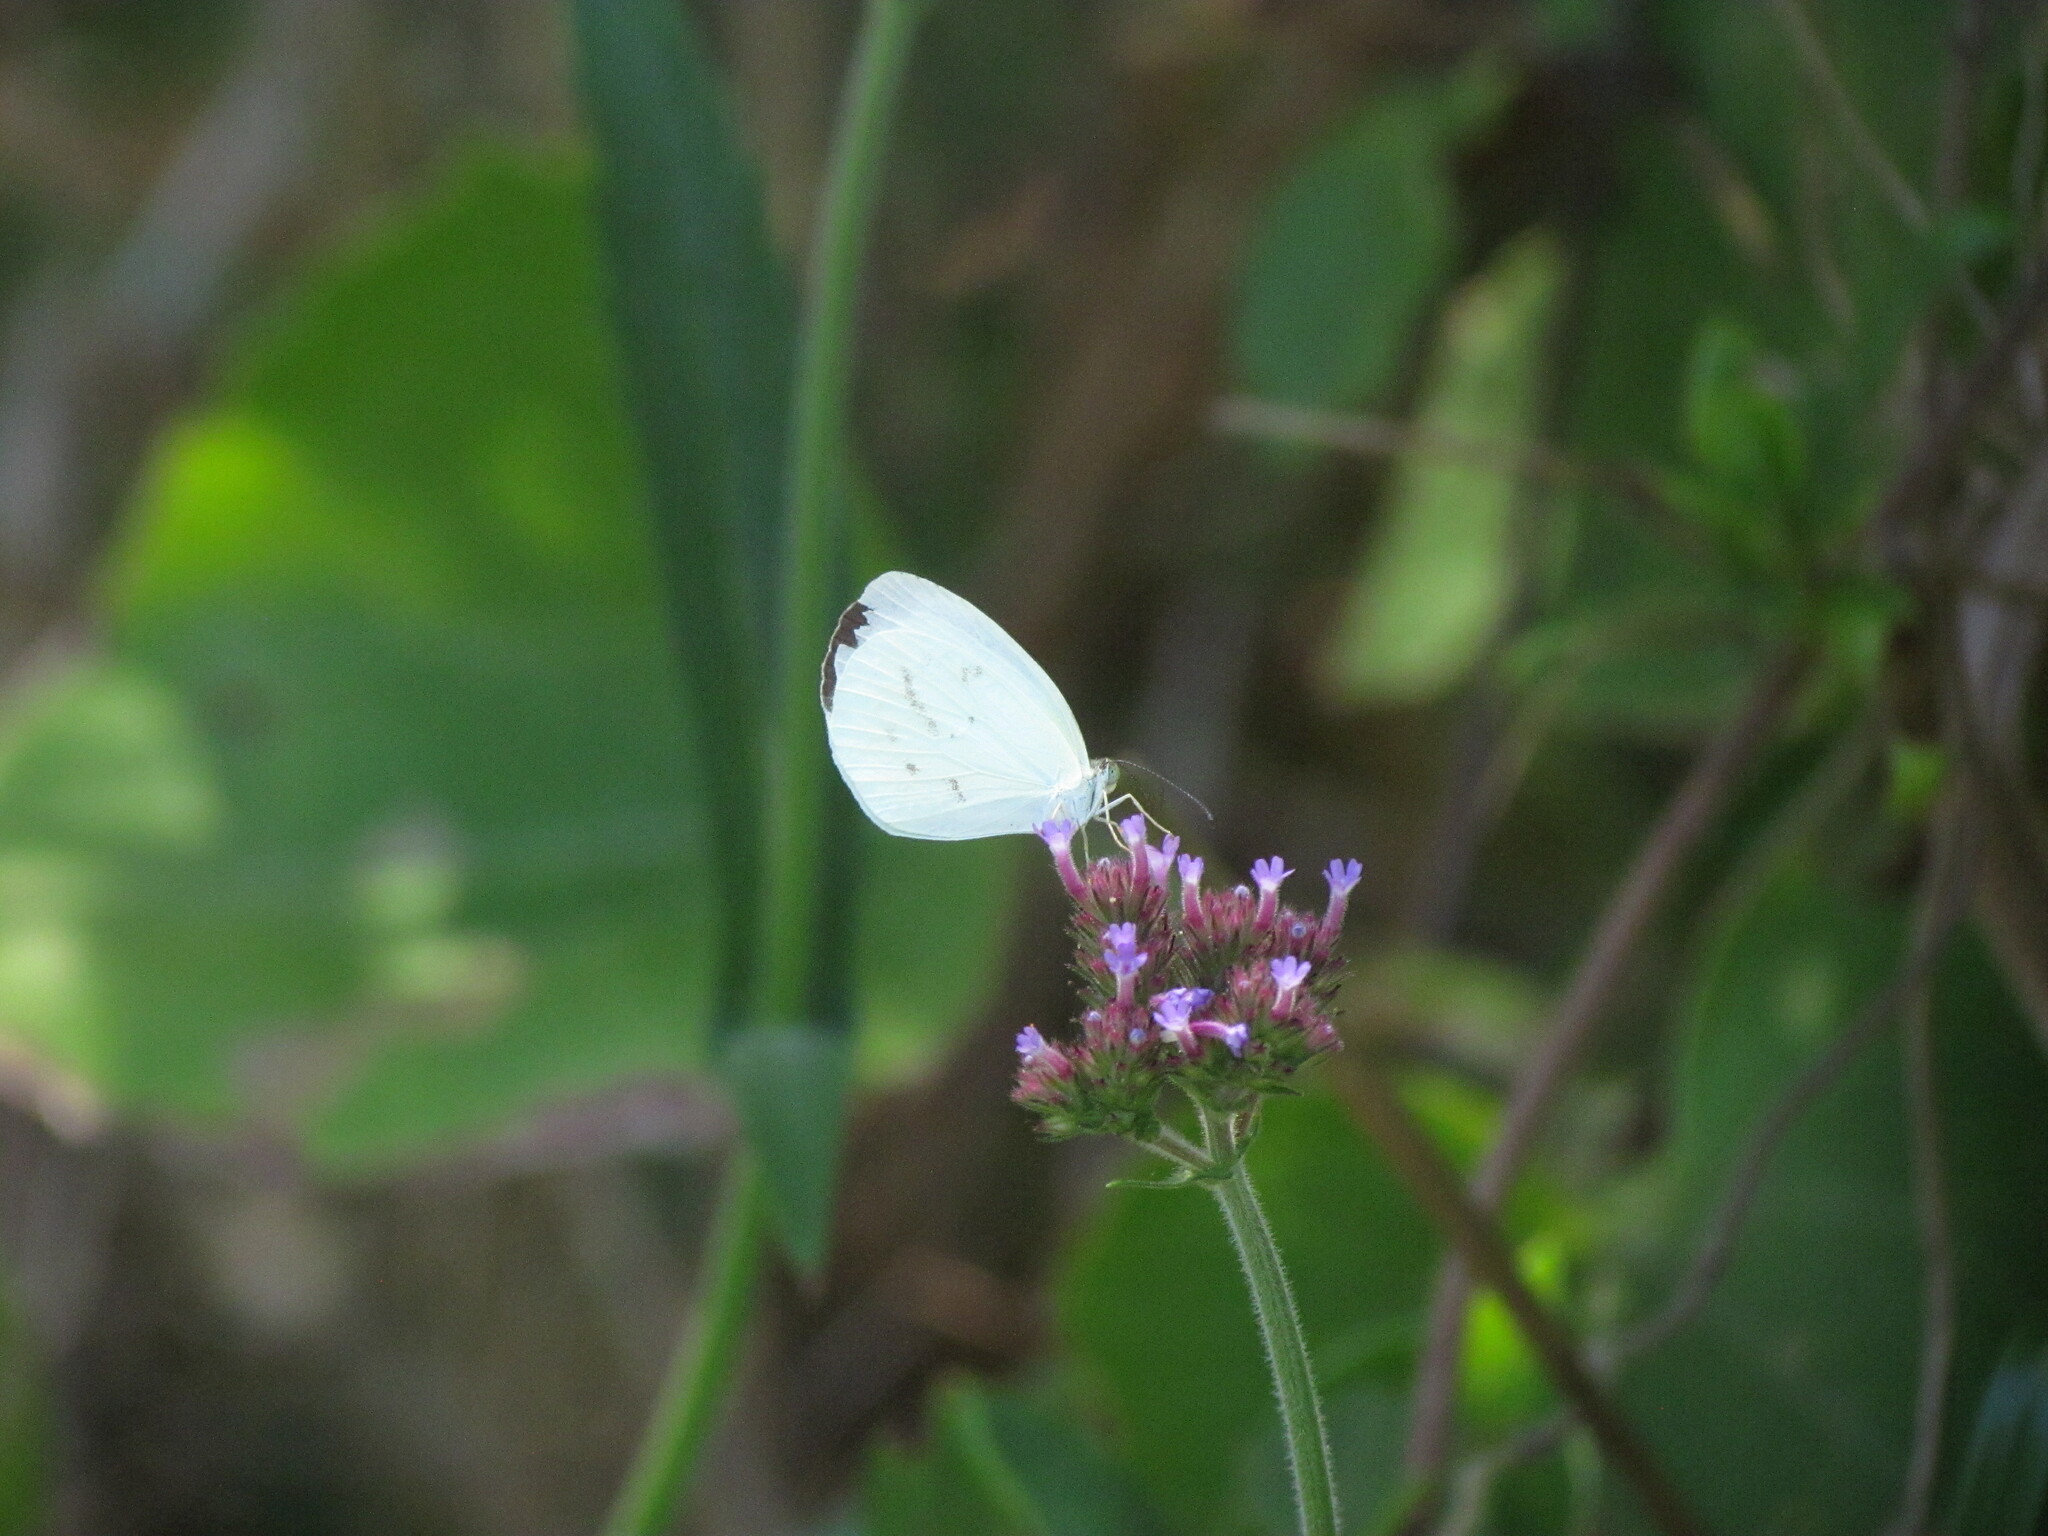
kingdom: Animalia
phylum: Arthropoda
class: Insecta
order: Lepidoptera
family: Pieridae
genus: Abaeis
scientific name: Abaeis albula
